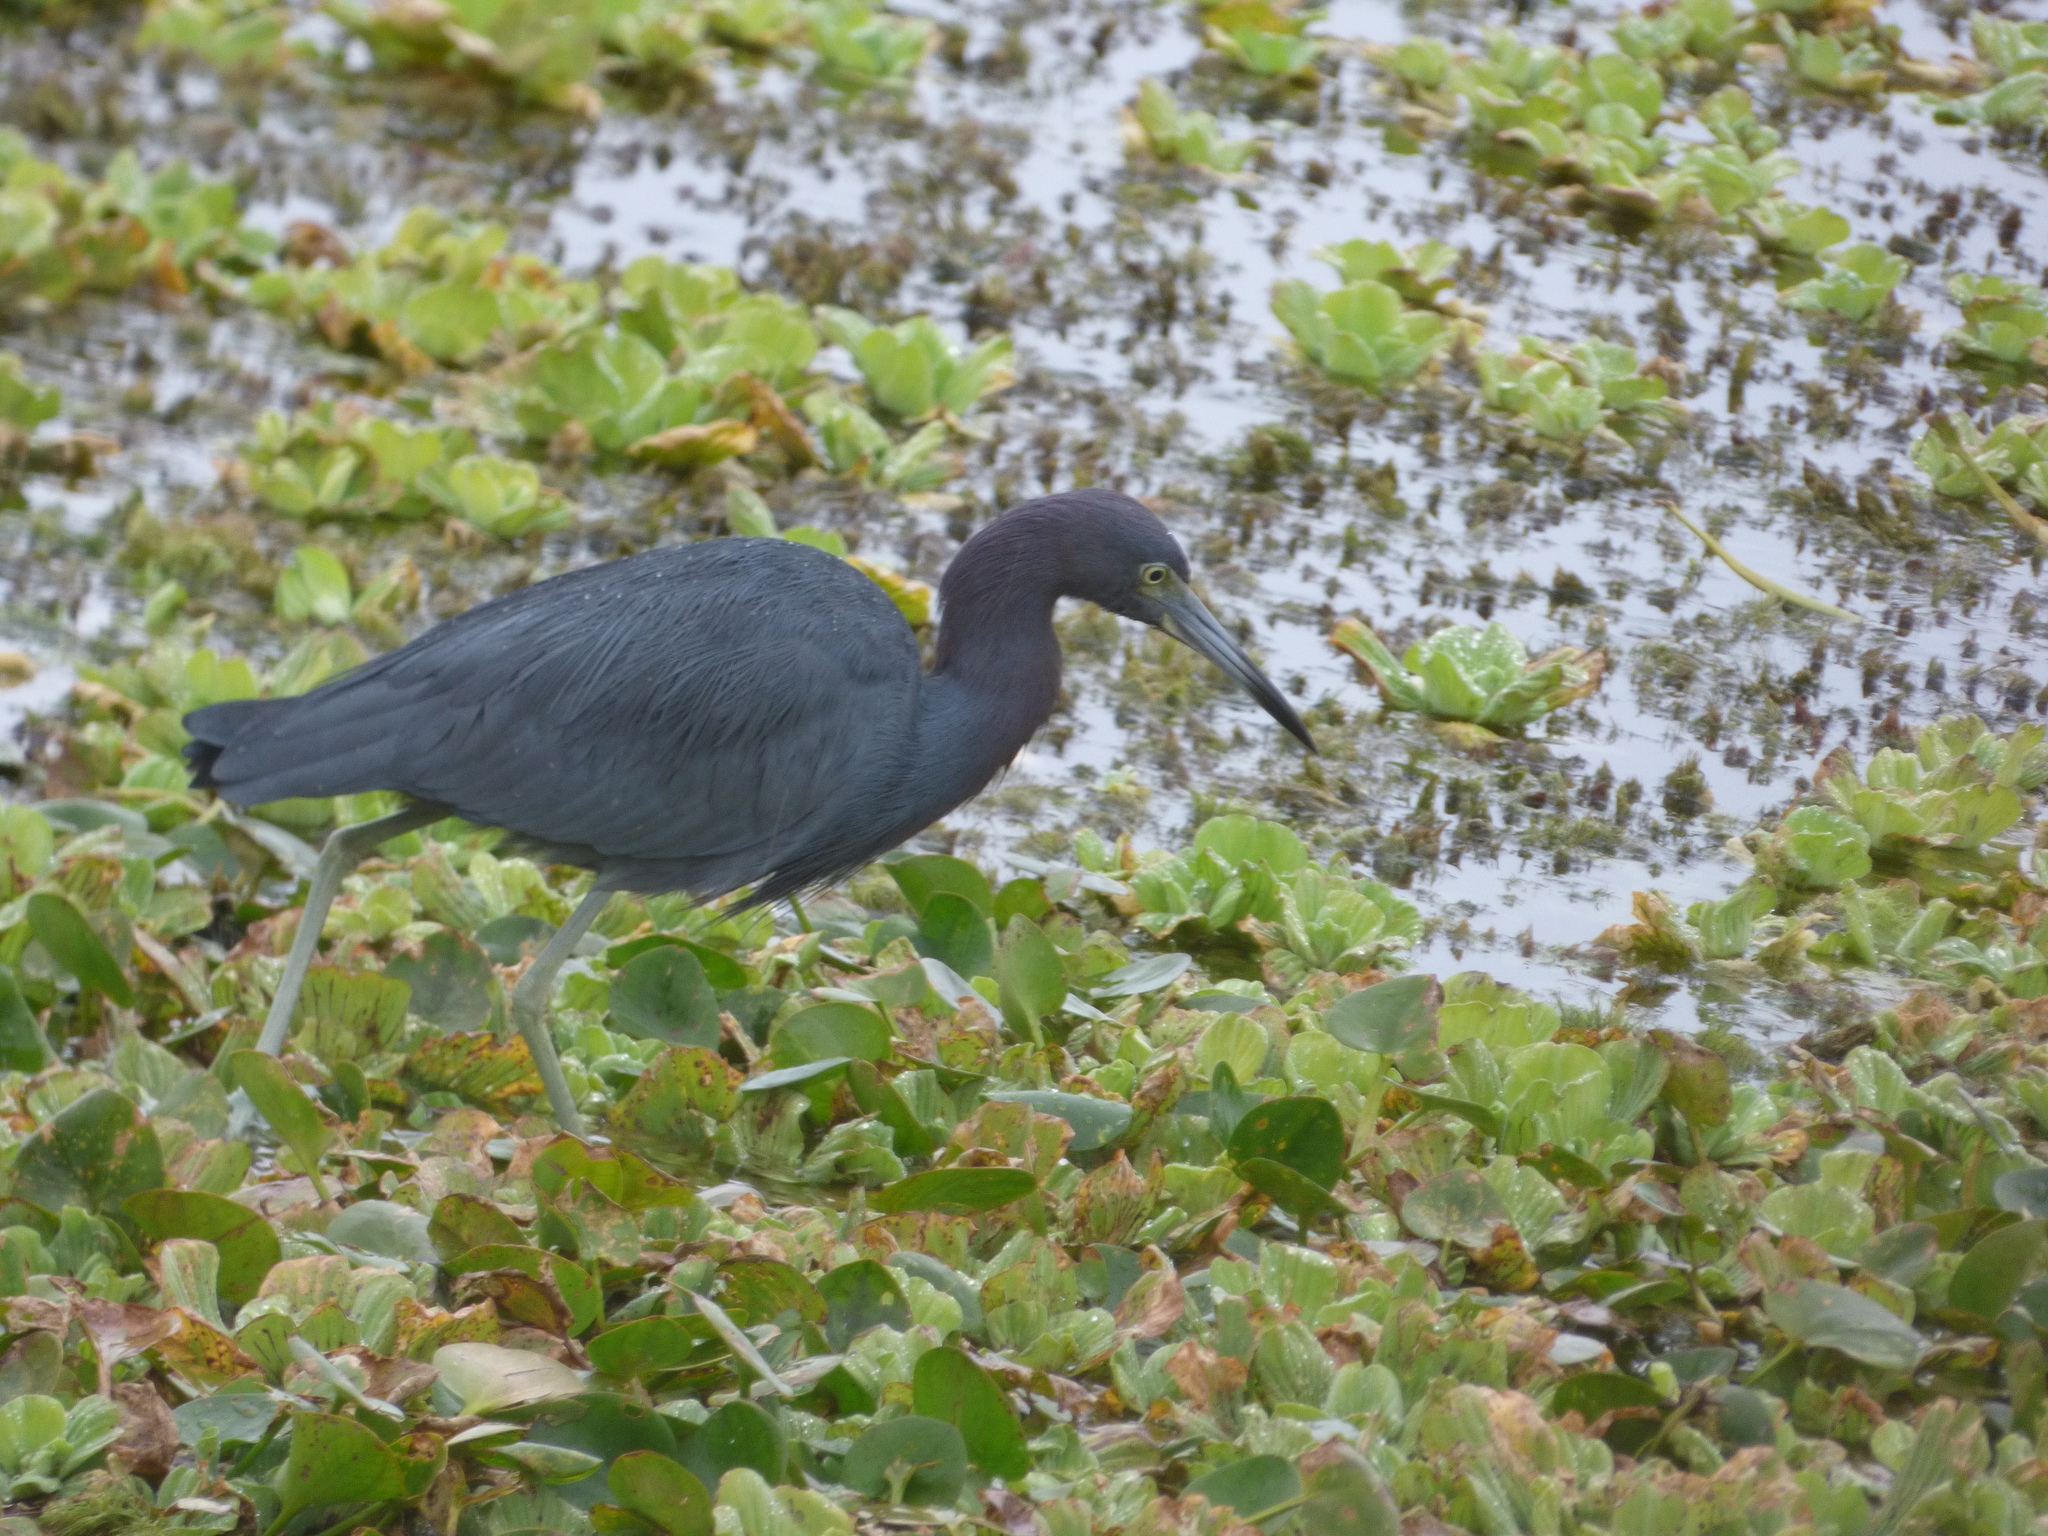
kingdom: Animalia
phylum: Chordata
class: Aves
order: Pelecaniformes
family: Ardeidae
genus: Egretta
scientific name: Egretta caerulea
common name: Little blue heron
